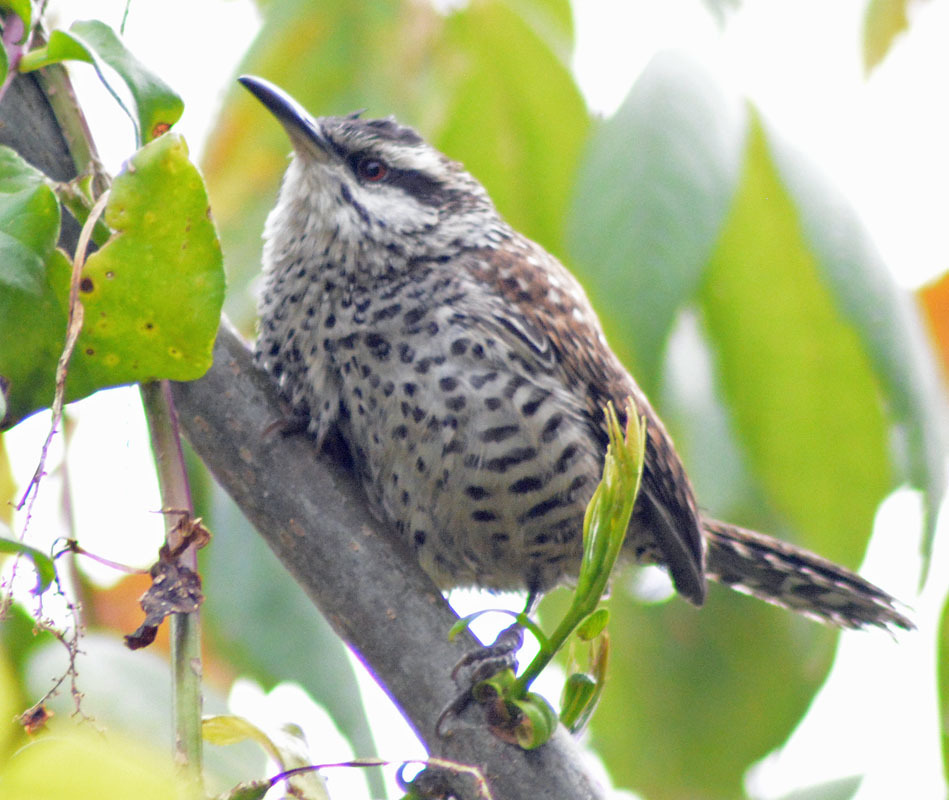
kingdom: Animalia
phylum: Chordata
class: Aves
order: Passeriformes
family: Troglodytidae
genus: Campylorhynchus
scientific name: Campylorhynchus jocosus
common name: Boucard's wren
